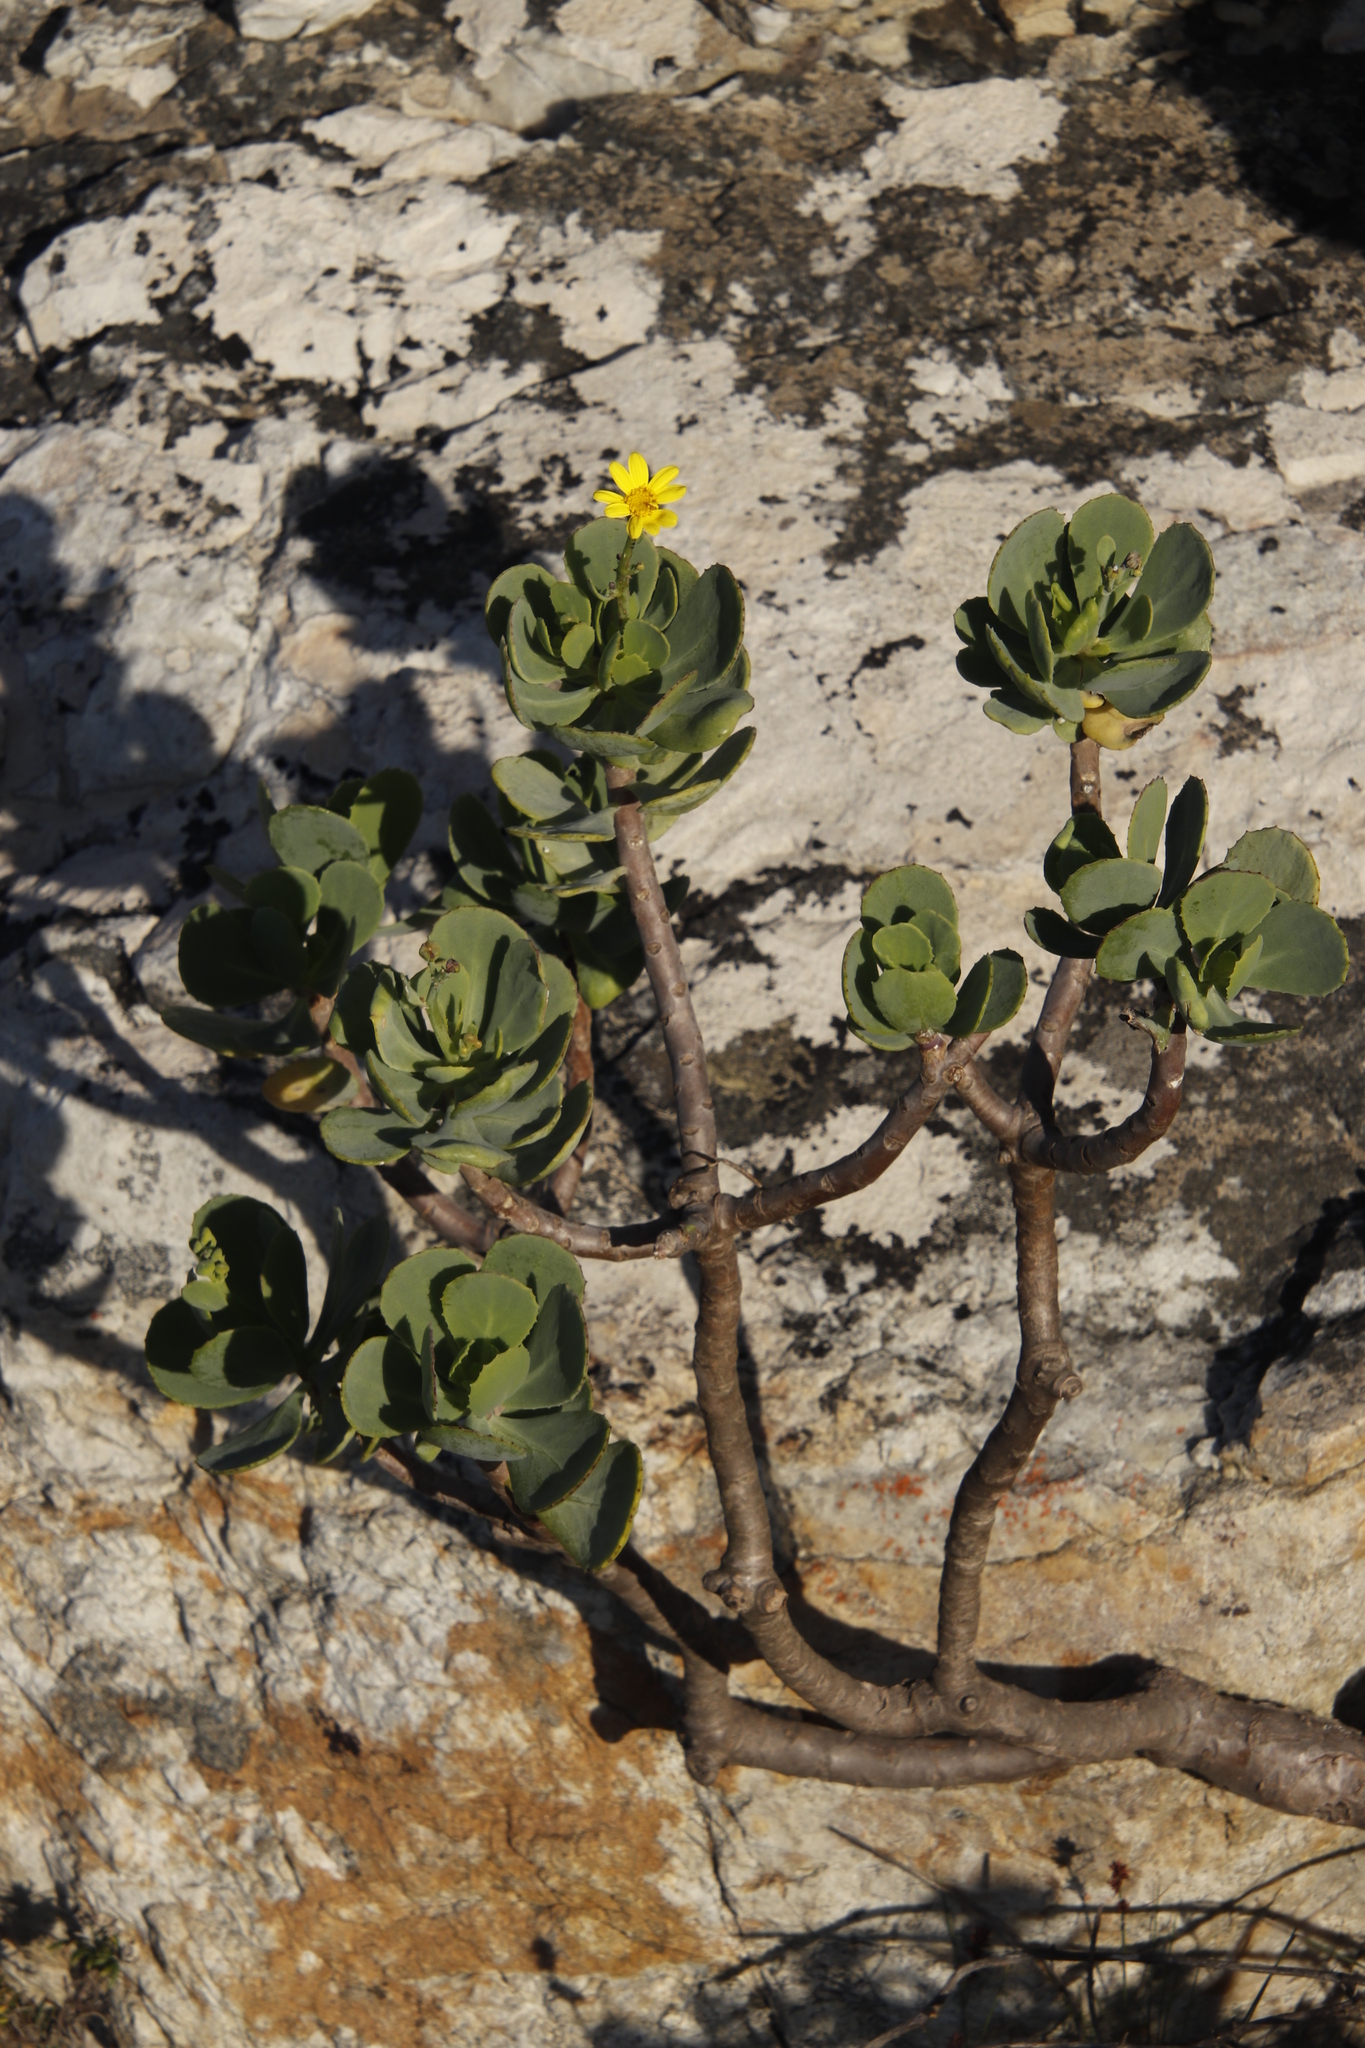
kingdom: Plantae
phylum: Tracheophyta
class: Magnoliopsida
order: Asterales
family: Asteraceae
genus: Othonna
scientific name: Othonna dentata
